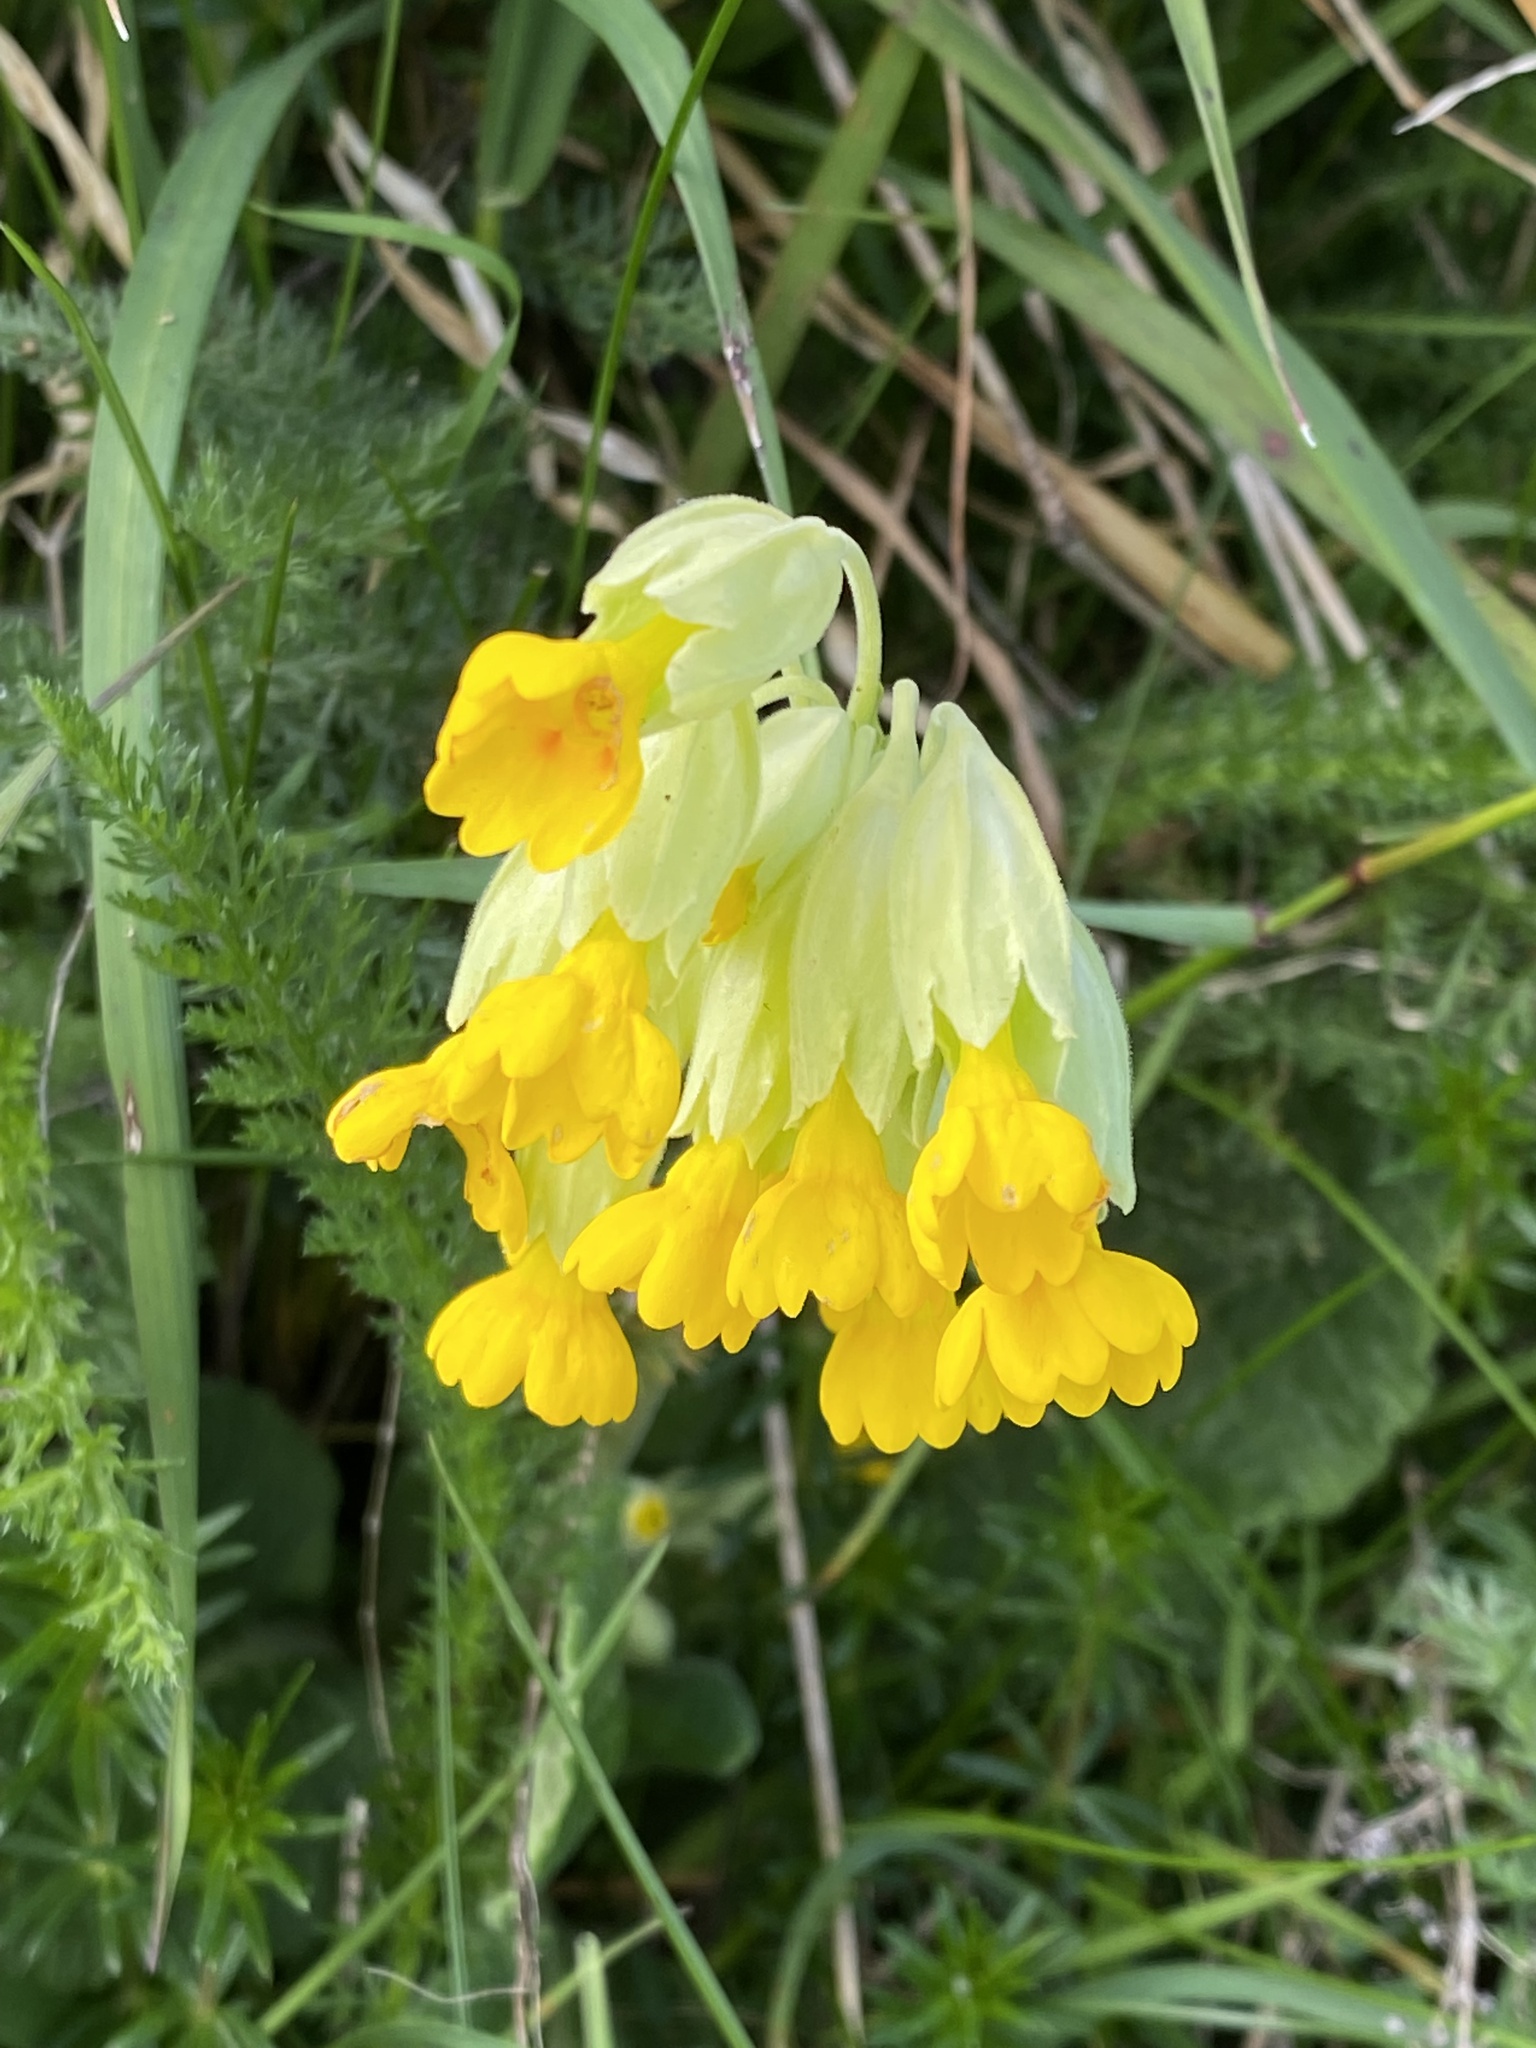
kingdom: Plantae
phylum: Tracheophyta
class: Magnoliopsida
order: Ericales
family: Primulaceae
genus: Primula
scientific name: Primula veris
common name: Cowslip
